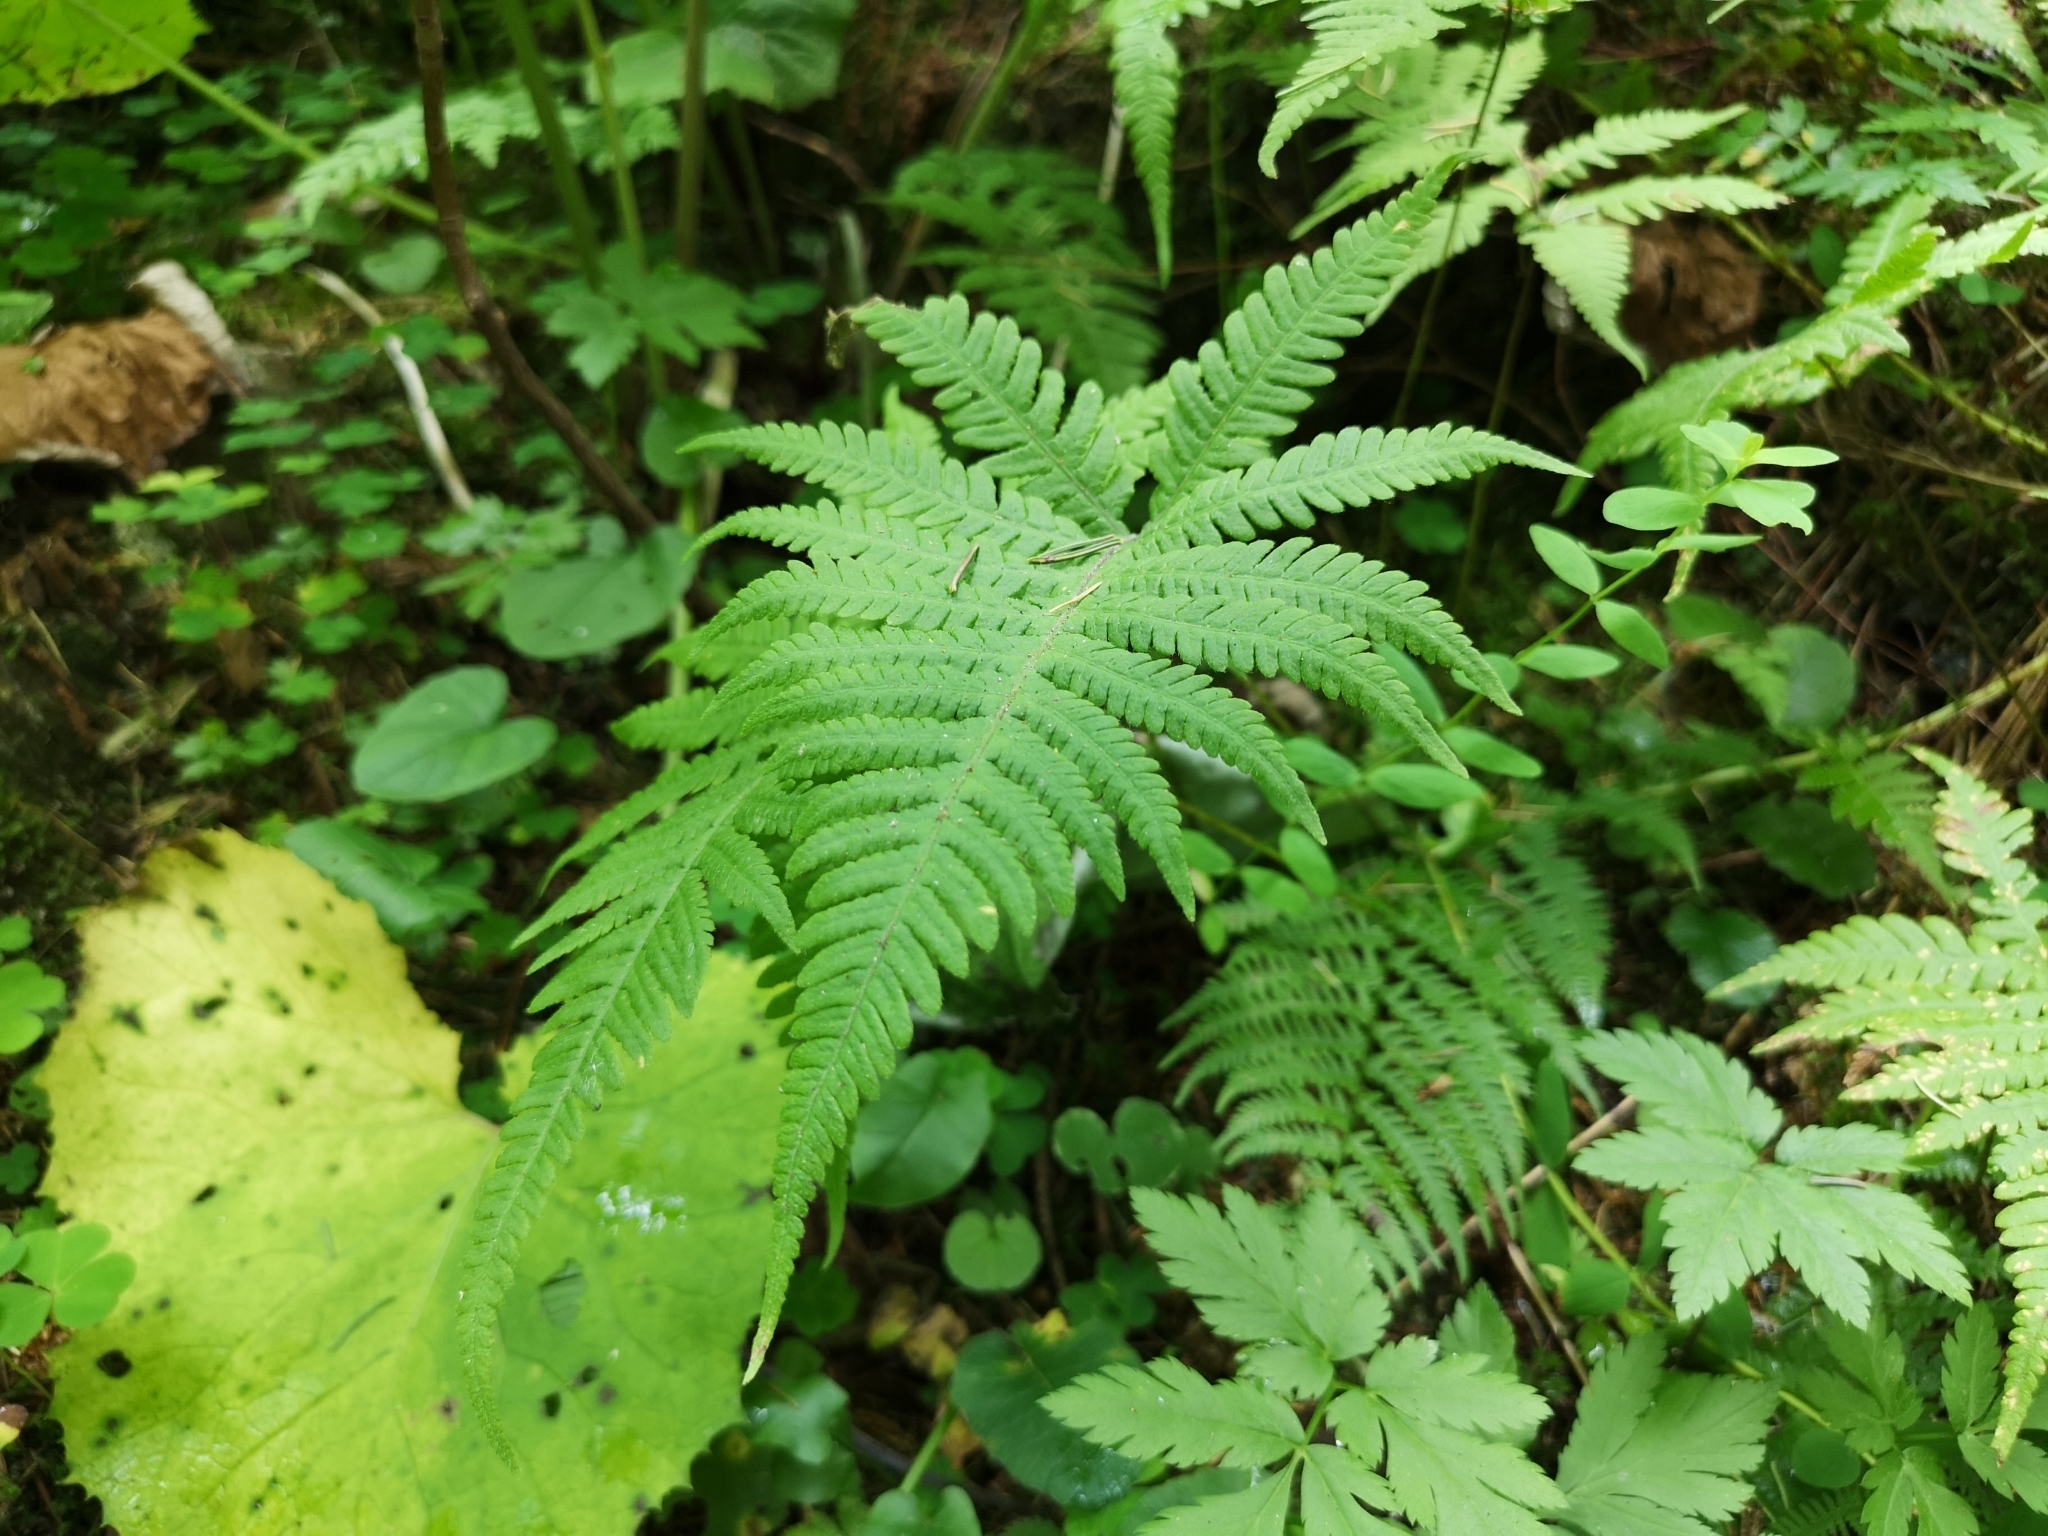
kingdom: Plantae
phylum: Tracheophyta
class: Polypodiopsida
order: Polypodiales
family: Thelypteridaceae
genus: Phegopteris
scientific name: Phegopteris connectilis
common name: Beech fern
